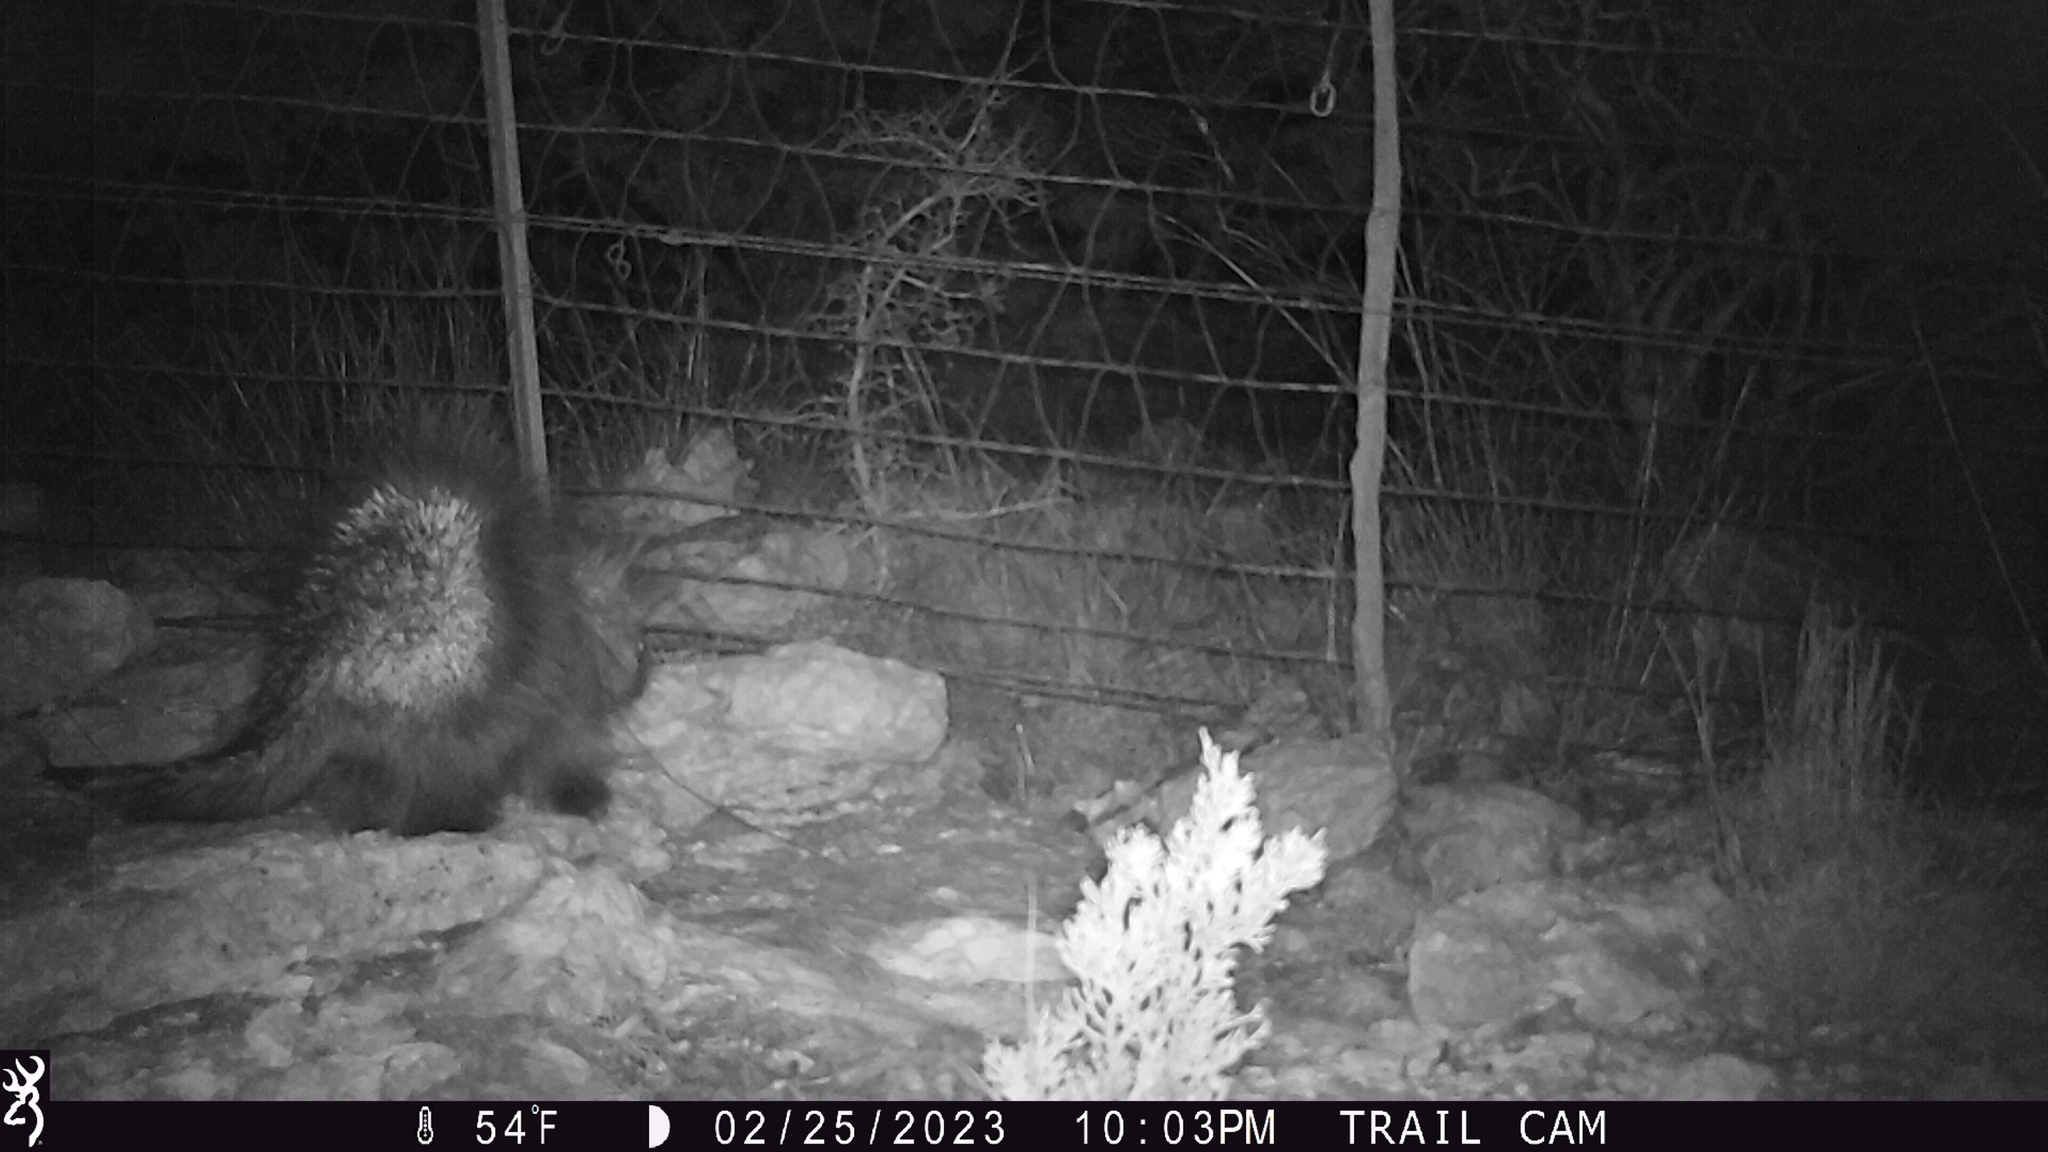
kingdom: Animalia
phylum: Chordata
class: Mammalia
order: Rodentia
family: Erethizontidae
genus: Erethizon
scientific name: Erethizon dorsatus
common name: North american porcupine
